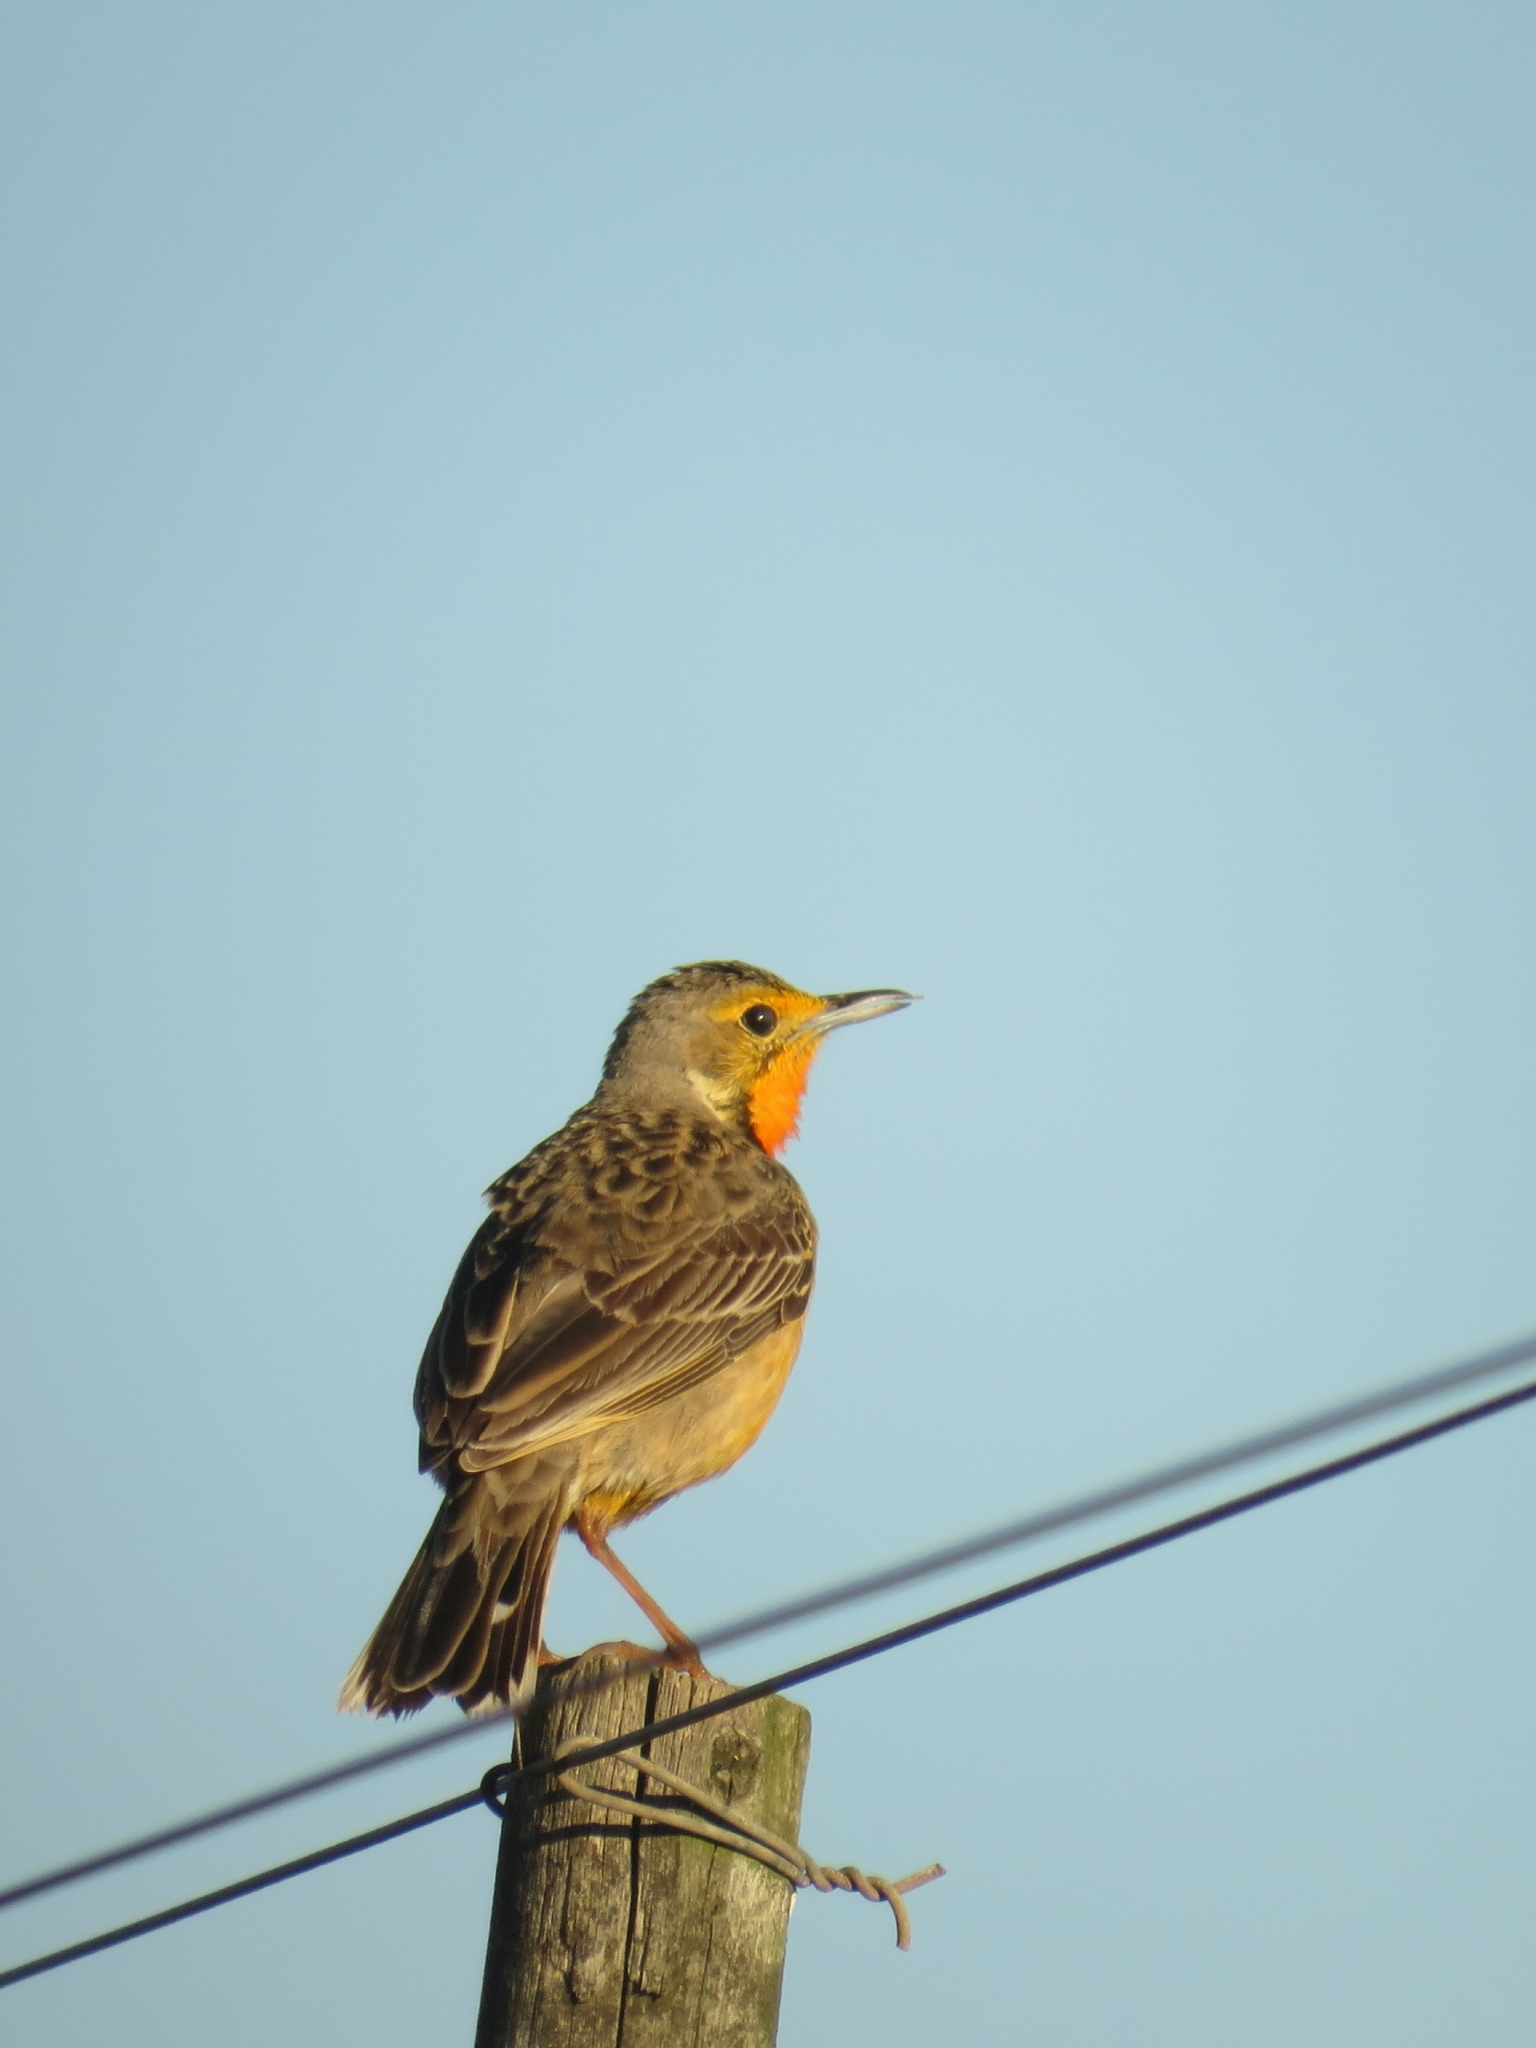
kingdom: Animalia
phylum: Chordata
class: Aves
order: Passeriformes
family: Motacillidae
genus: Macronyx
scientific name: Macronyx capensis
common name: Cape longclaw
